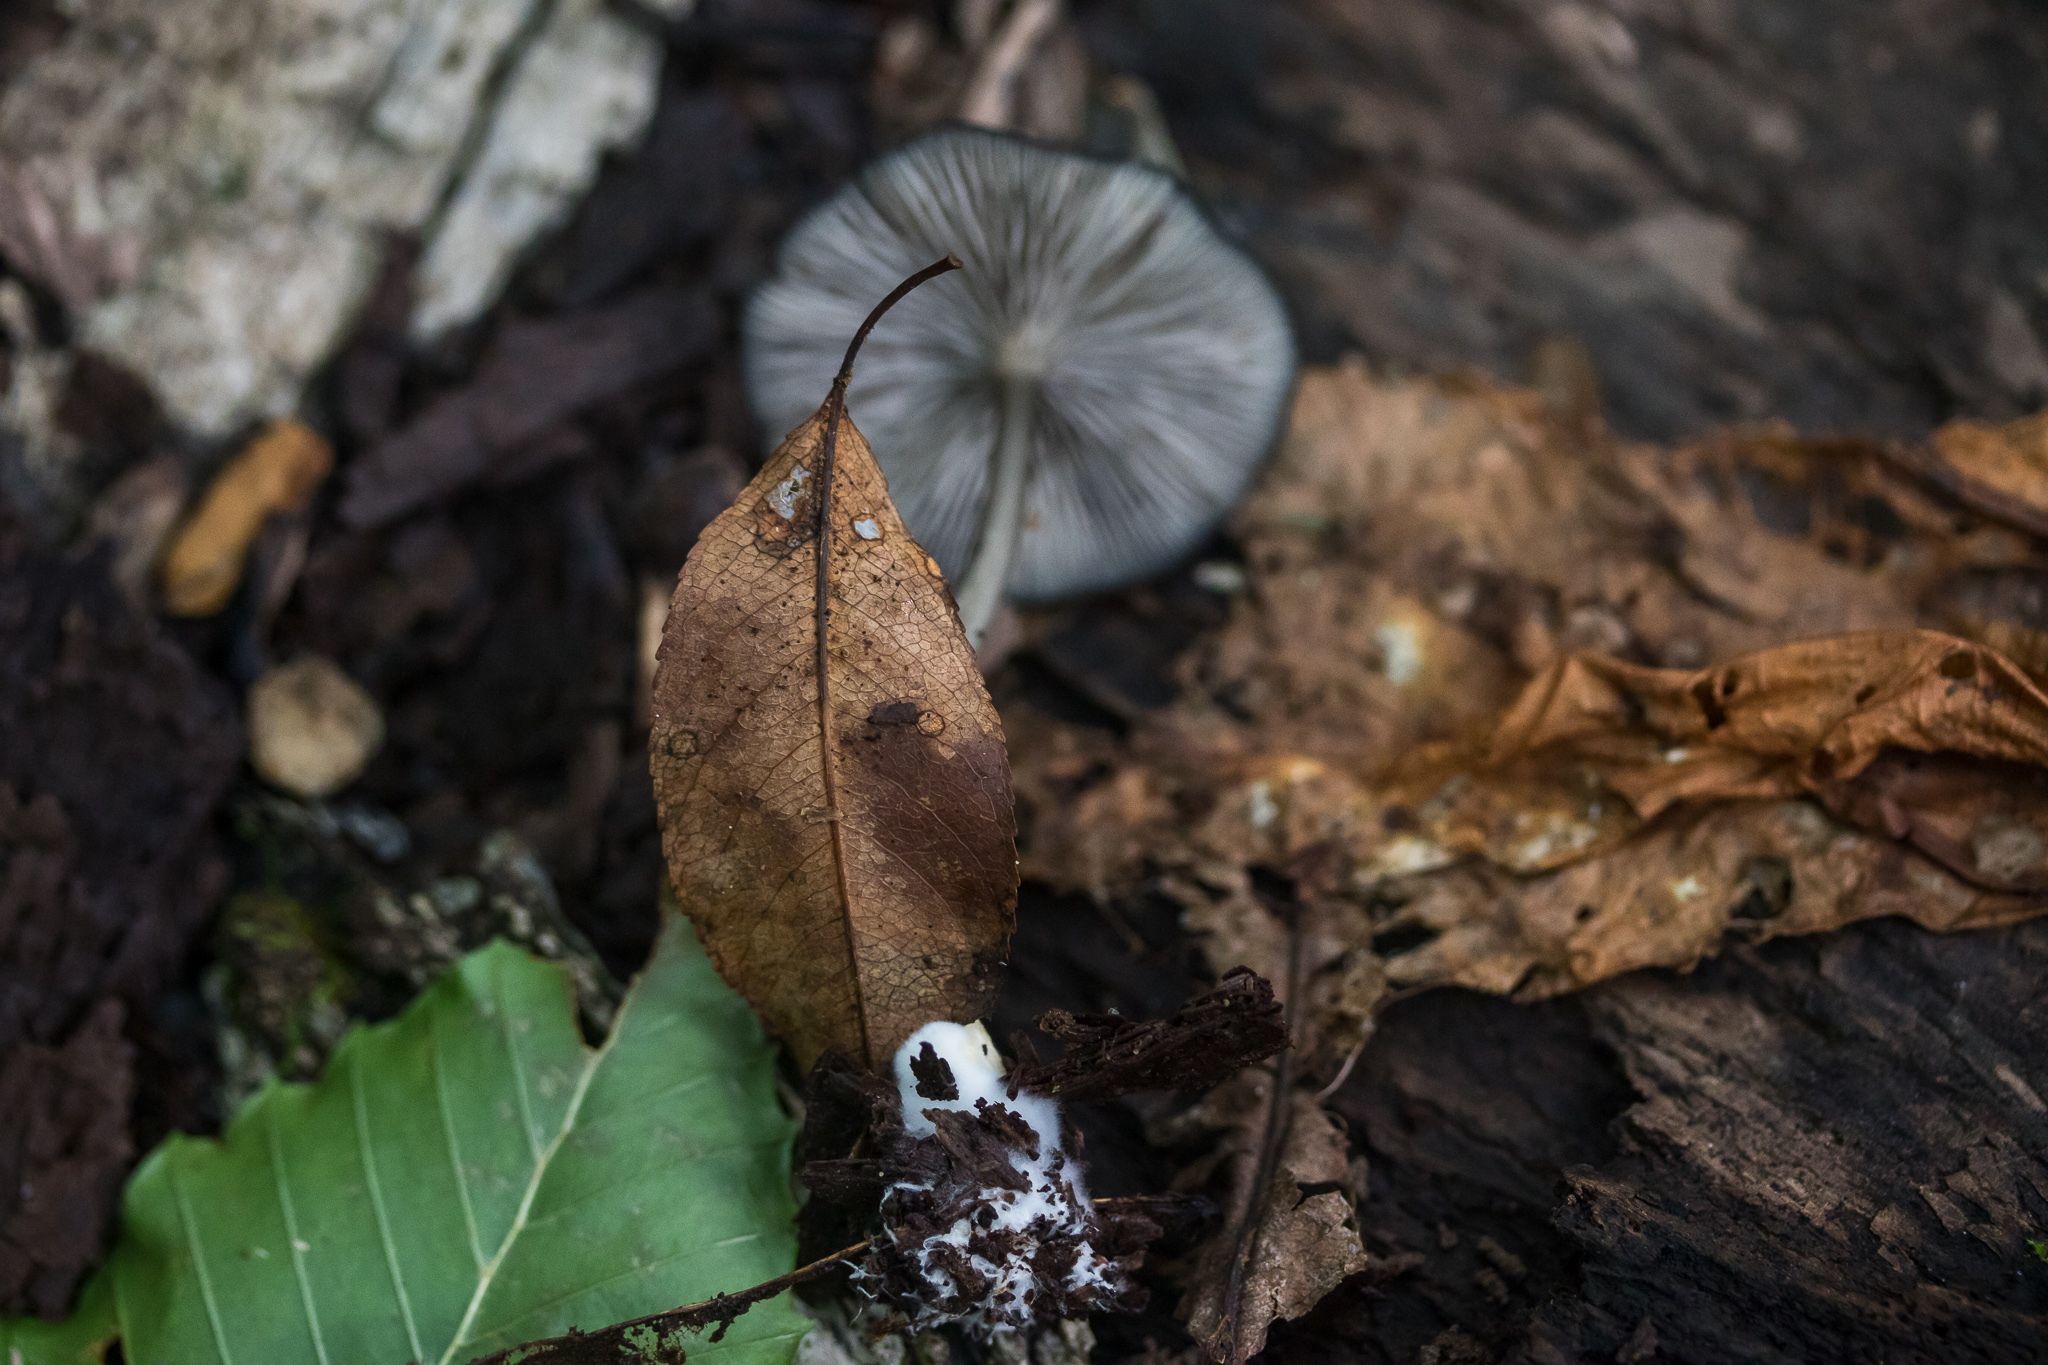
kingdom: Fungi
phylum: Basidiomycota
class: Agaricomycetes
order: Agaricales
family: Entolomataceae
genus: Entoloma
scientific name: Entoloma serrulatum
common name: Blue edge pinkgill
